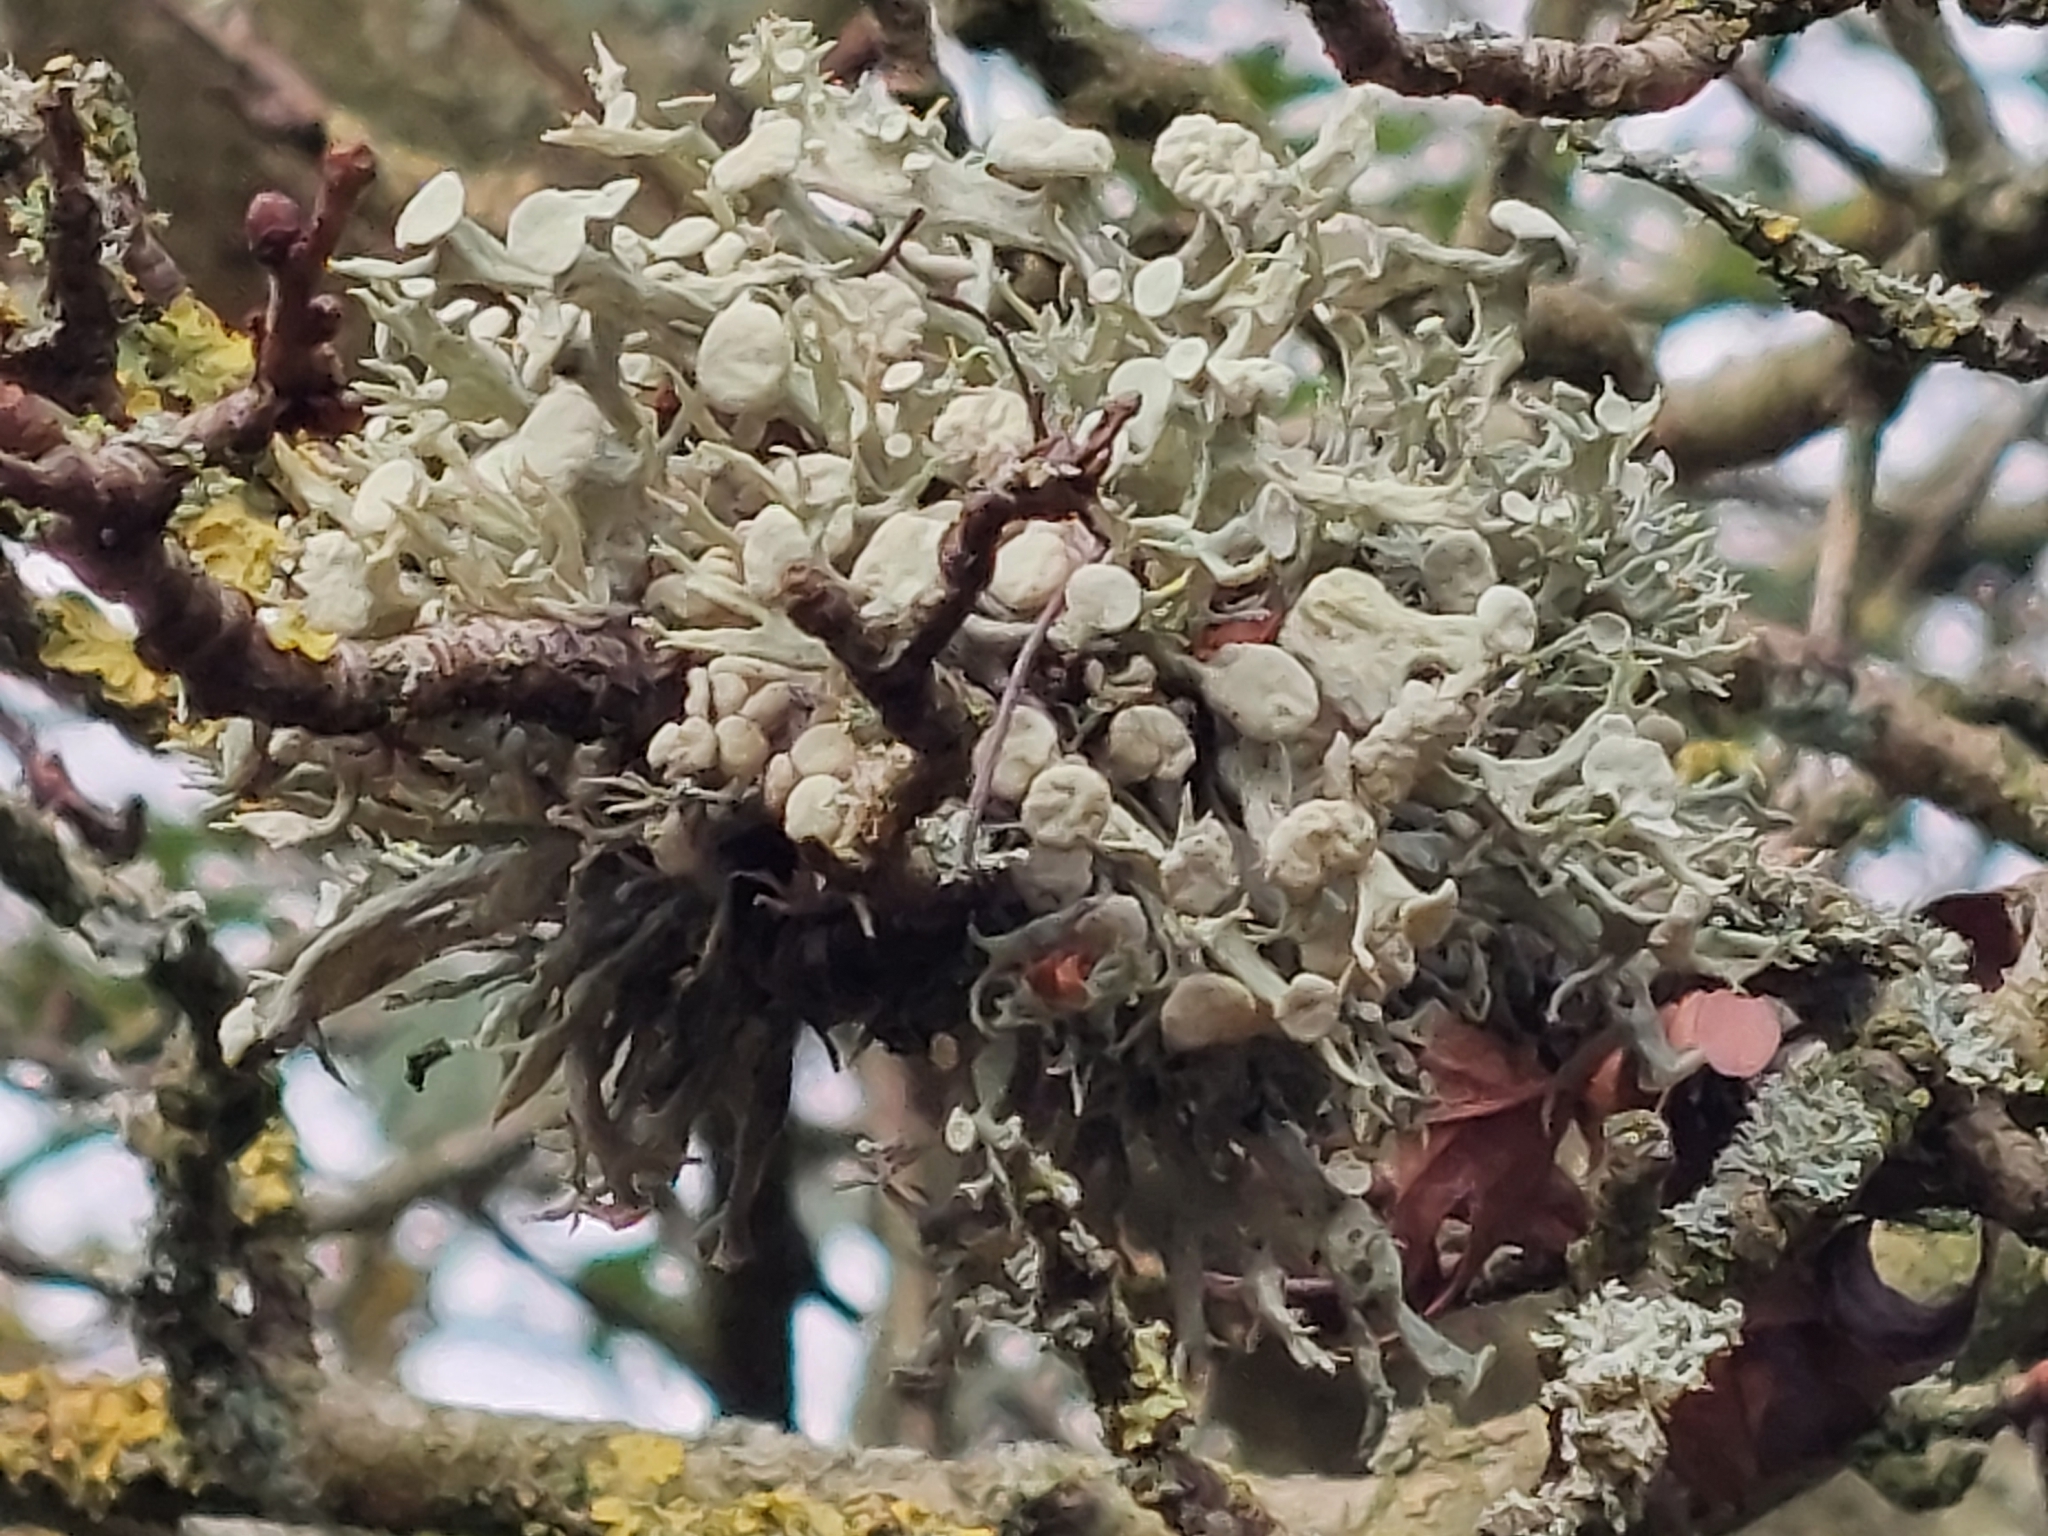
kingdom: Fungi
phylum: Ascomycota
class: Lecanoromycetes
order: Lecanorales
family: Ramalinaceae
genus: Ramalina
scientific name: Ramalina fastigiata
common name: Dotted ribbon lichen
